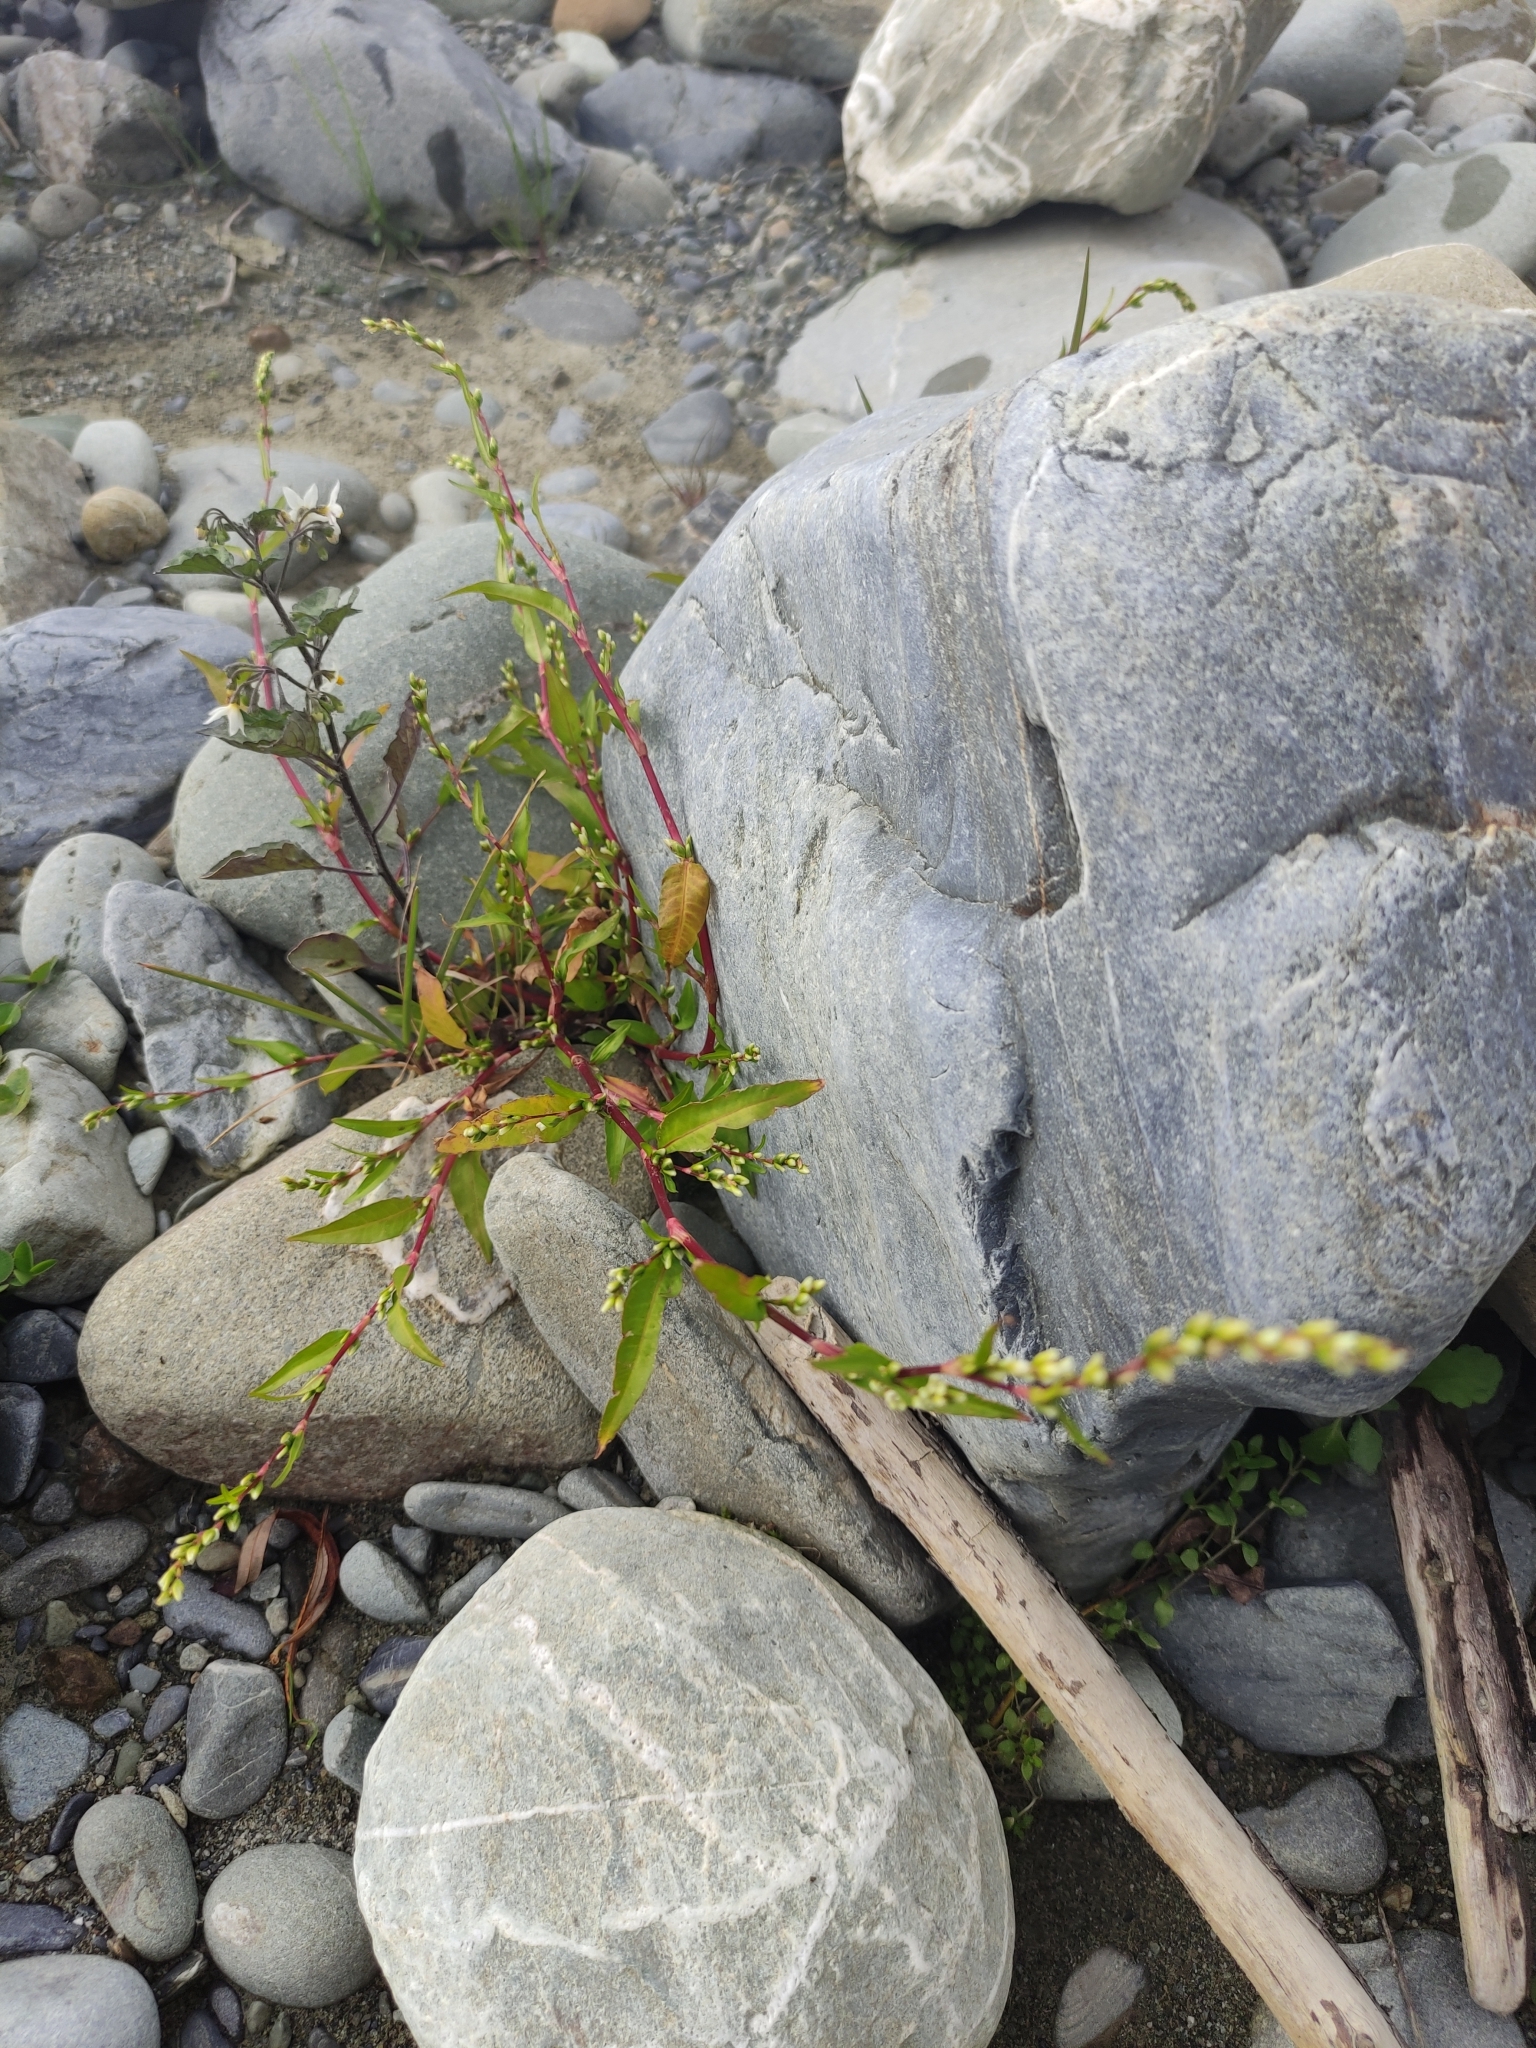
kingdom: Plantae
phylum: Tracheophyta
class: Magnoliopsida
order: Caryophyllales
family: Polygonaceae
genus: Persicaria
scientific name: Persicaria hydropiper
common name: Water-pepper
